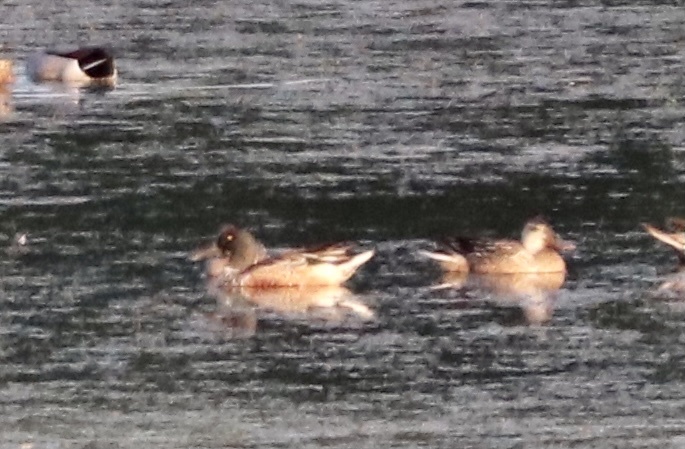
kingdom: Animalia
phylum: Chordata
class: Aves
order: Anseriformes
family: Anatidae
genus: Spatula
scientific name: Spatula clypeata
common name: Northern shoveler
